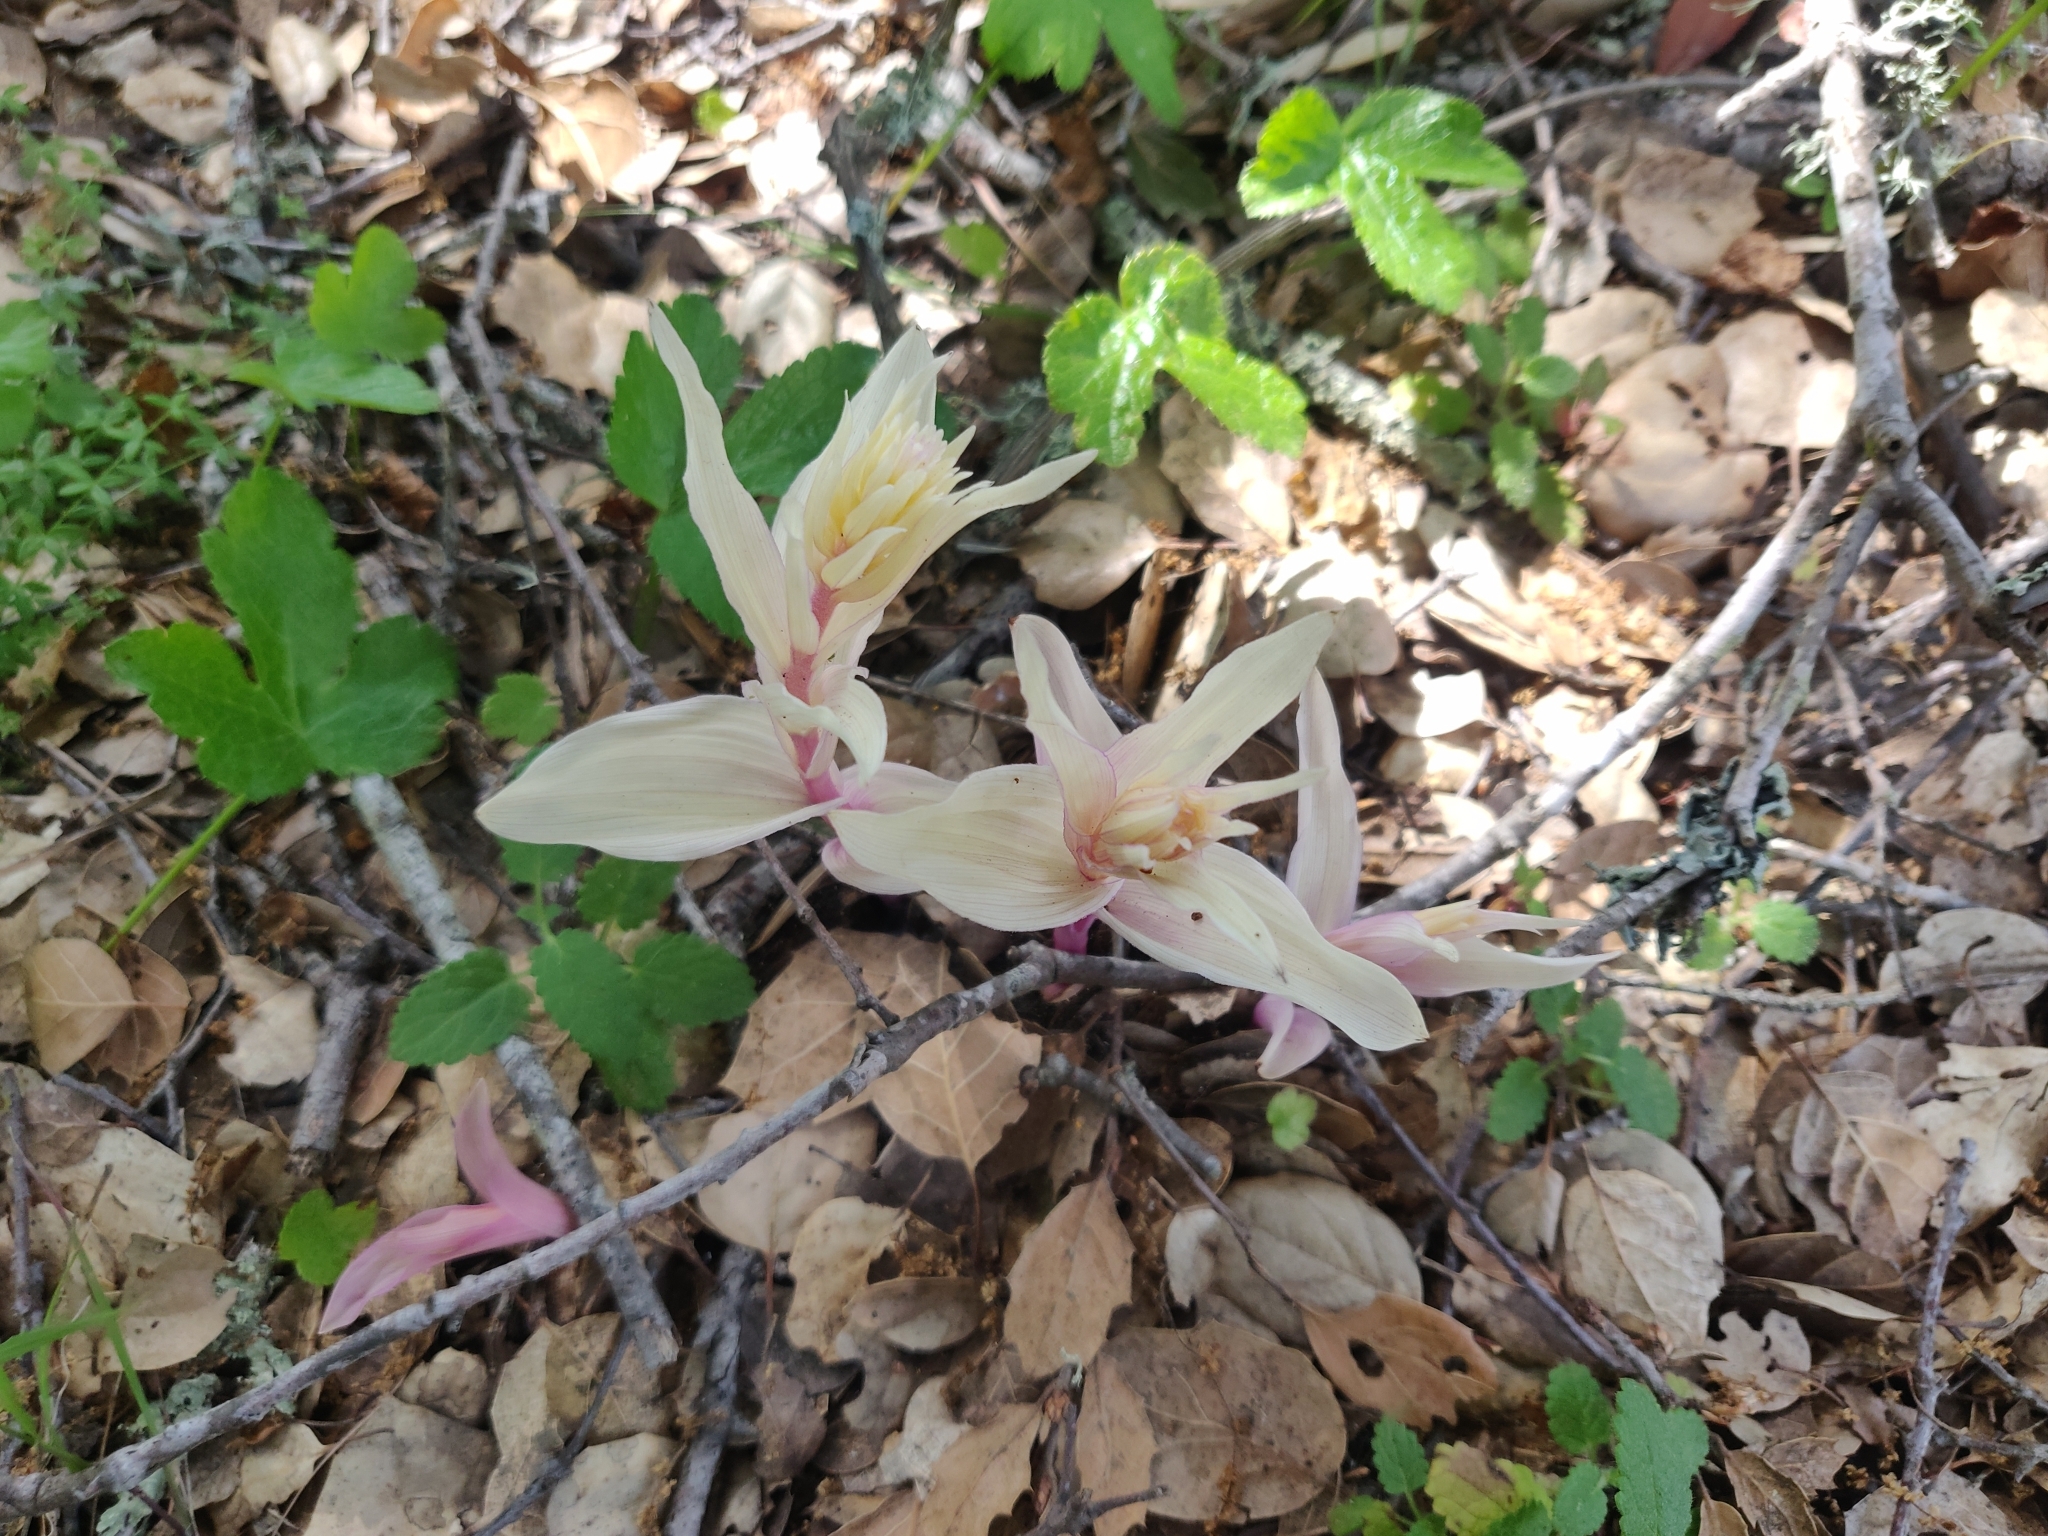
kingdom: Plantae
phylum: Tracheophyta
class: Liliopsida
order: Asparagales
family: Orchidaceae
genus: Epipactis
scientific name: Epipactis helleborine
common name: Broad-leaved helleborine
